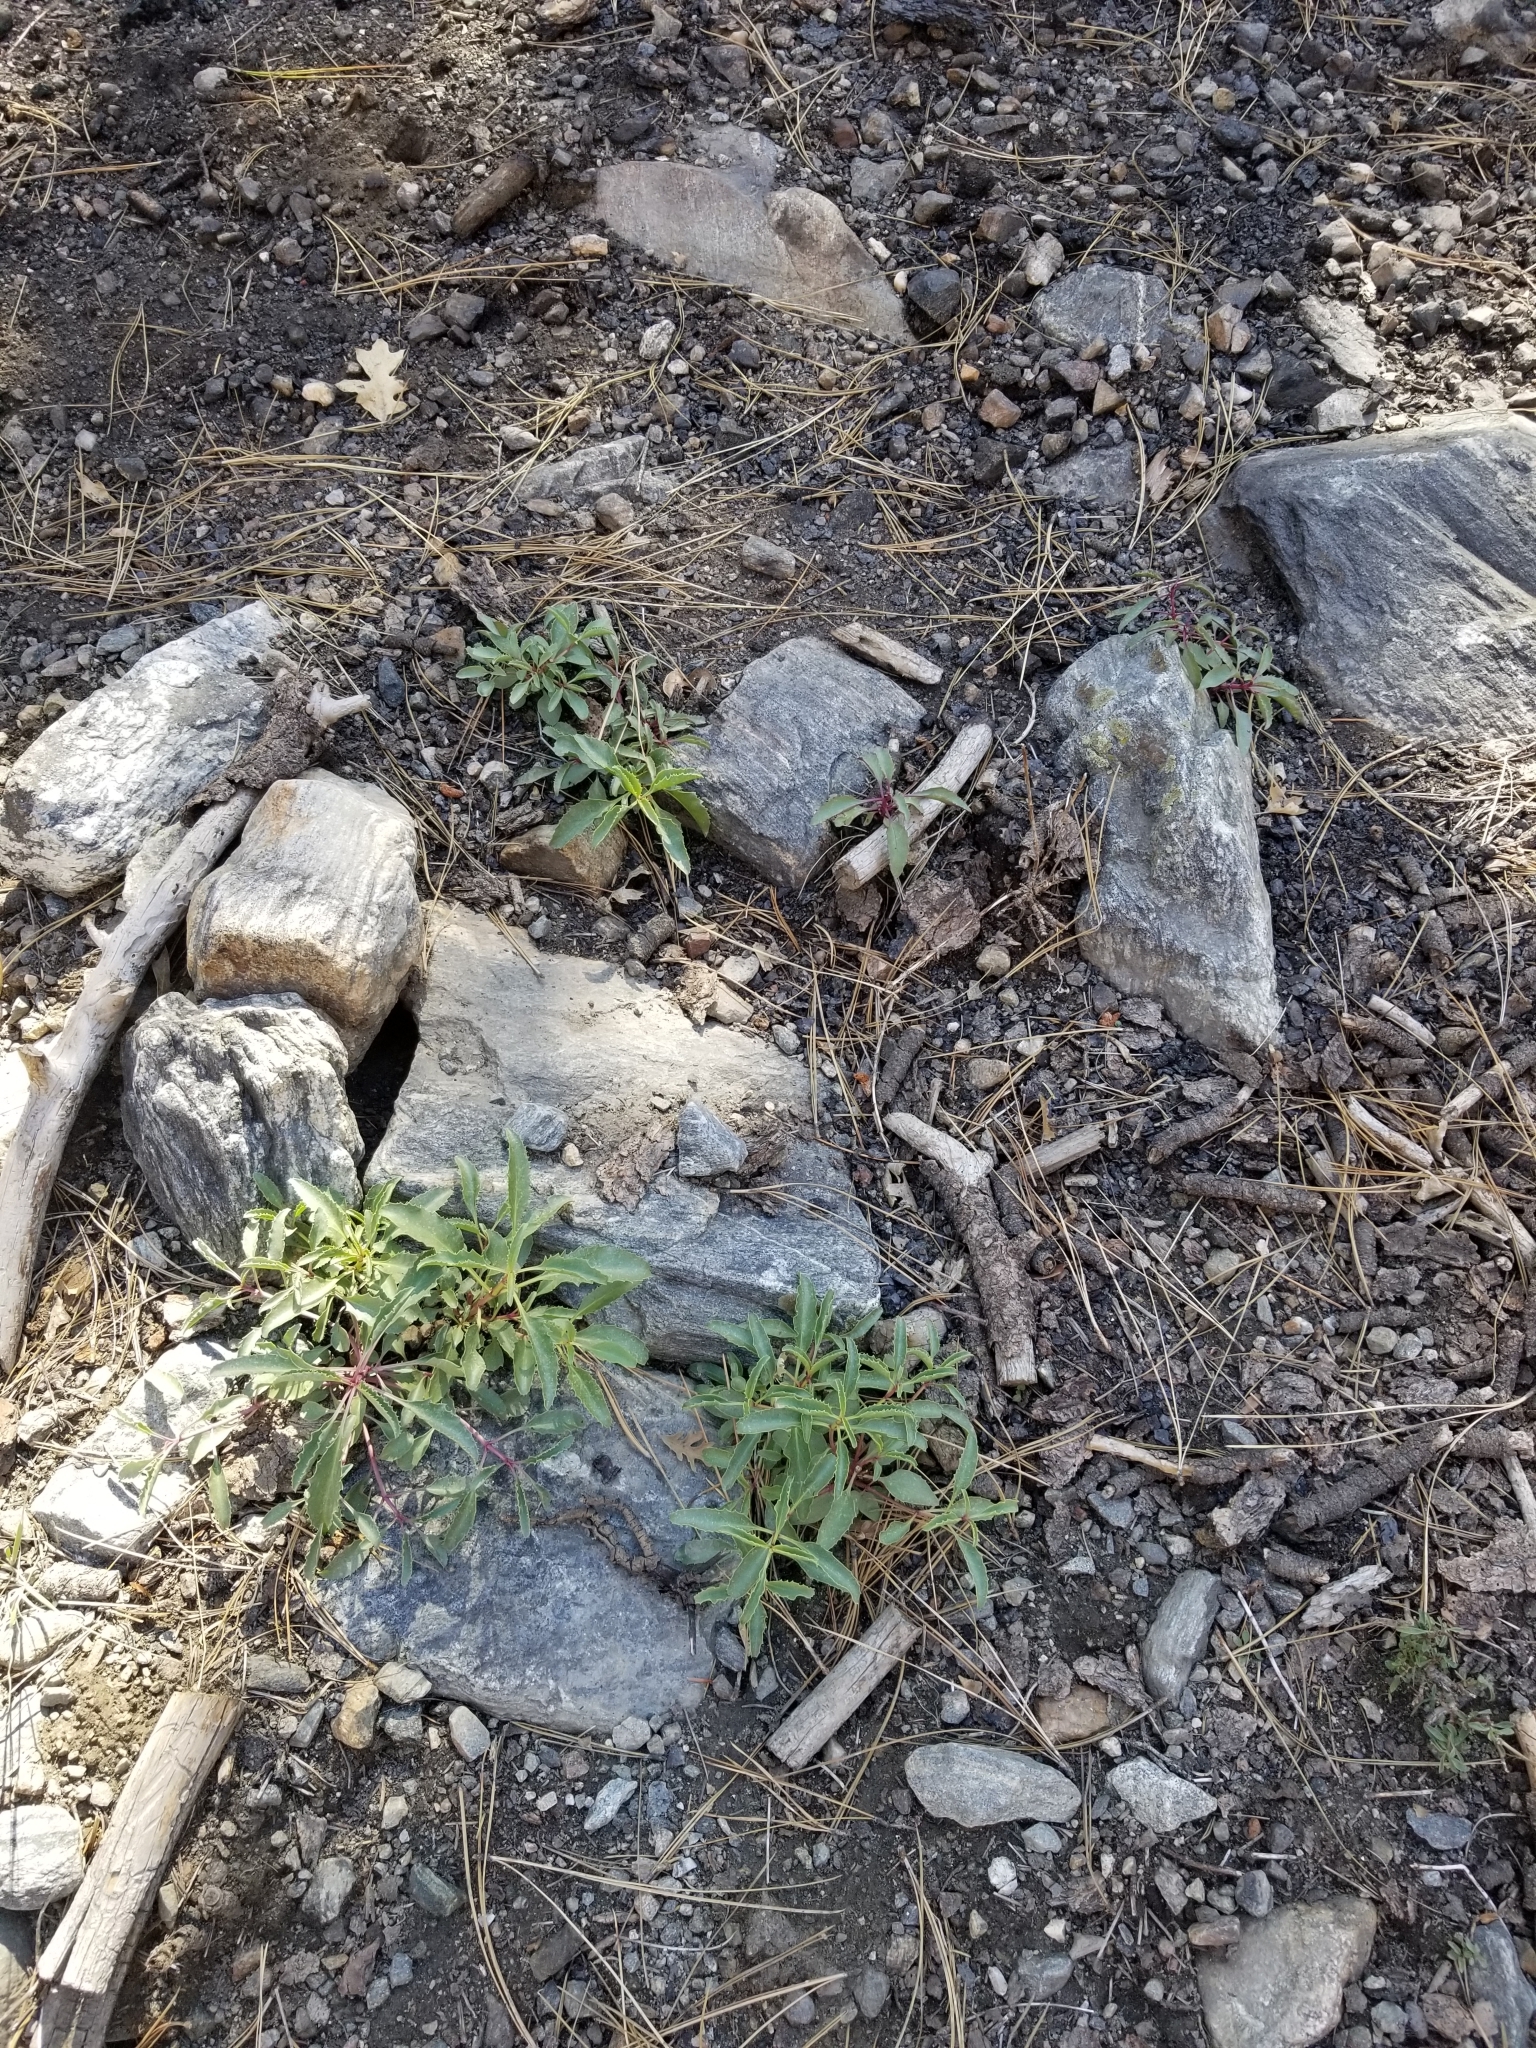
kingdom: Plantae
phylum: Tracheophyta
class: Magnoliopsida
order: Lamiales
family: Plantaginaceae
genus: Penstemon
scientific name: Penstemon grinnellii
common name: Grinnell's beardtongue
